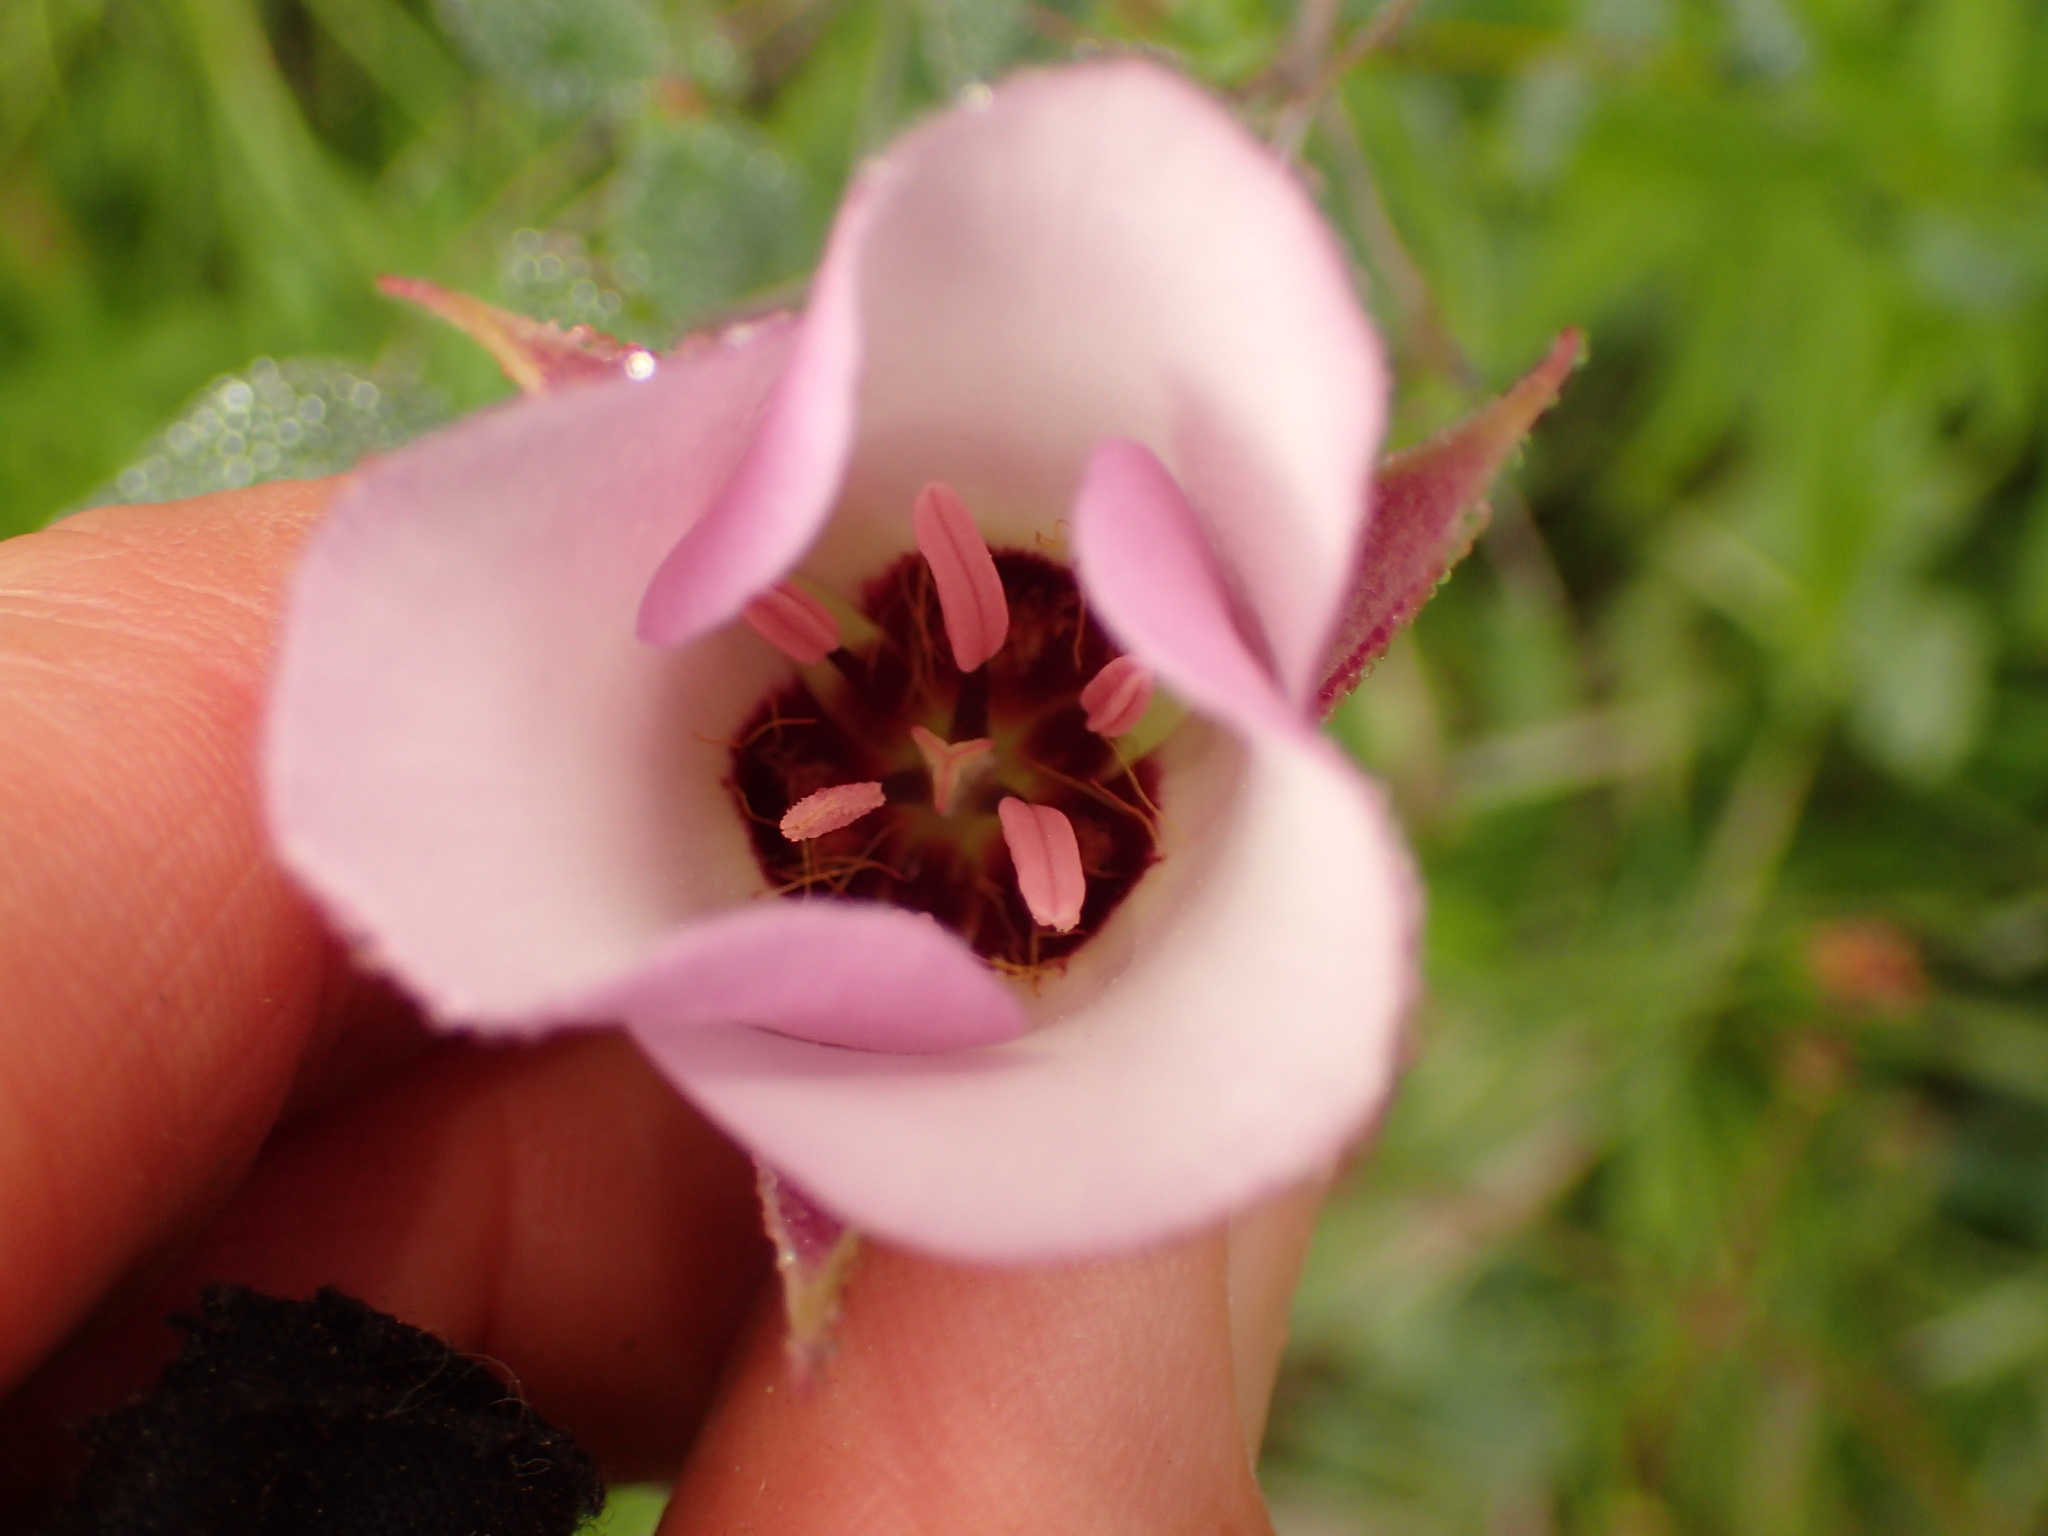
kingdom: Plantae
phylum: Tracheophyta
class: Liliopsida
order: Liliales
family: Liliaceae
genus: Calochortus
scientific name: Calochortus catalinae
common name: Catalina mariposa-lily
